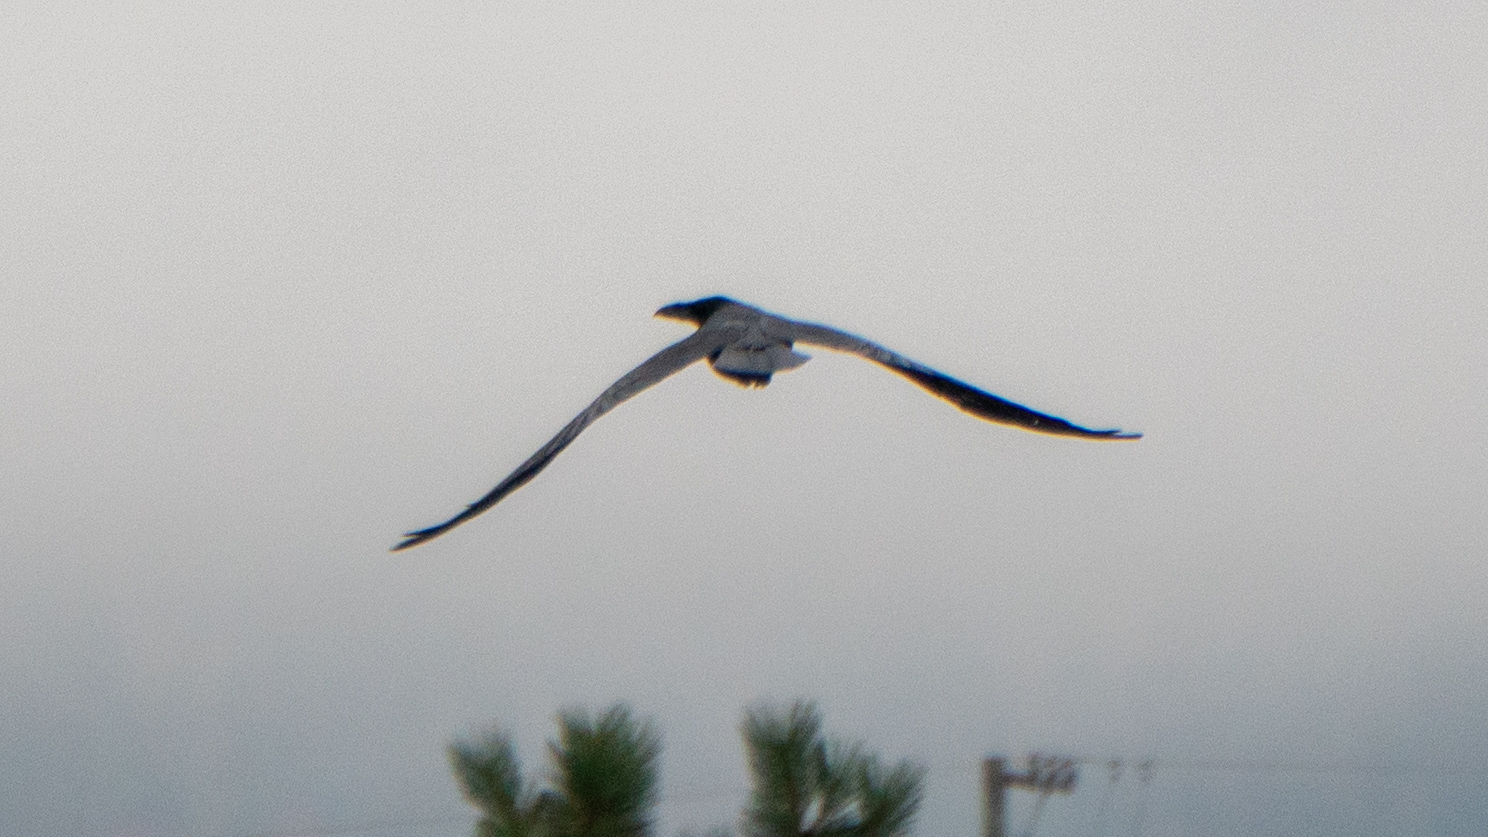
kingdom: Animalia
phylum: Chordata
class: Aves
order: Passeriformes
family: Corvidae
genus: Corvus
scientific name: Corvus corax
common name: Common raven
